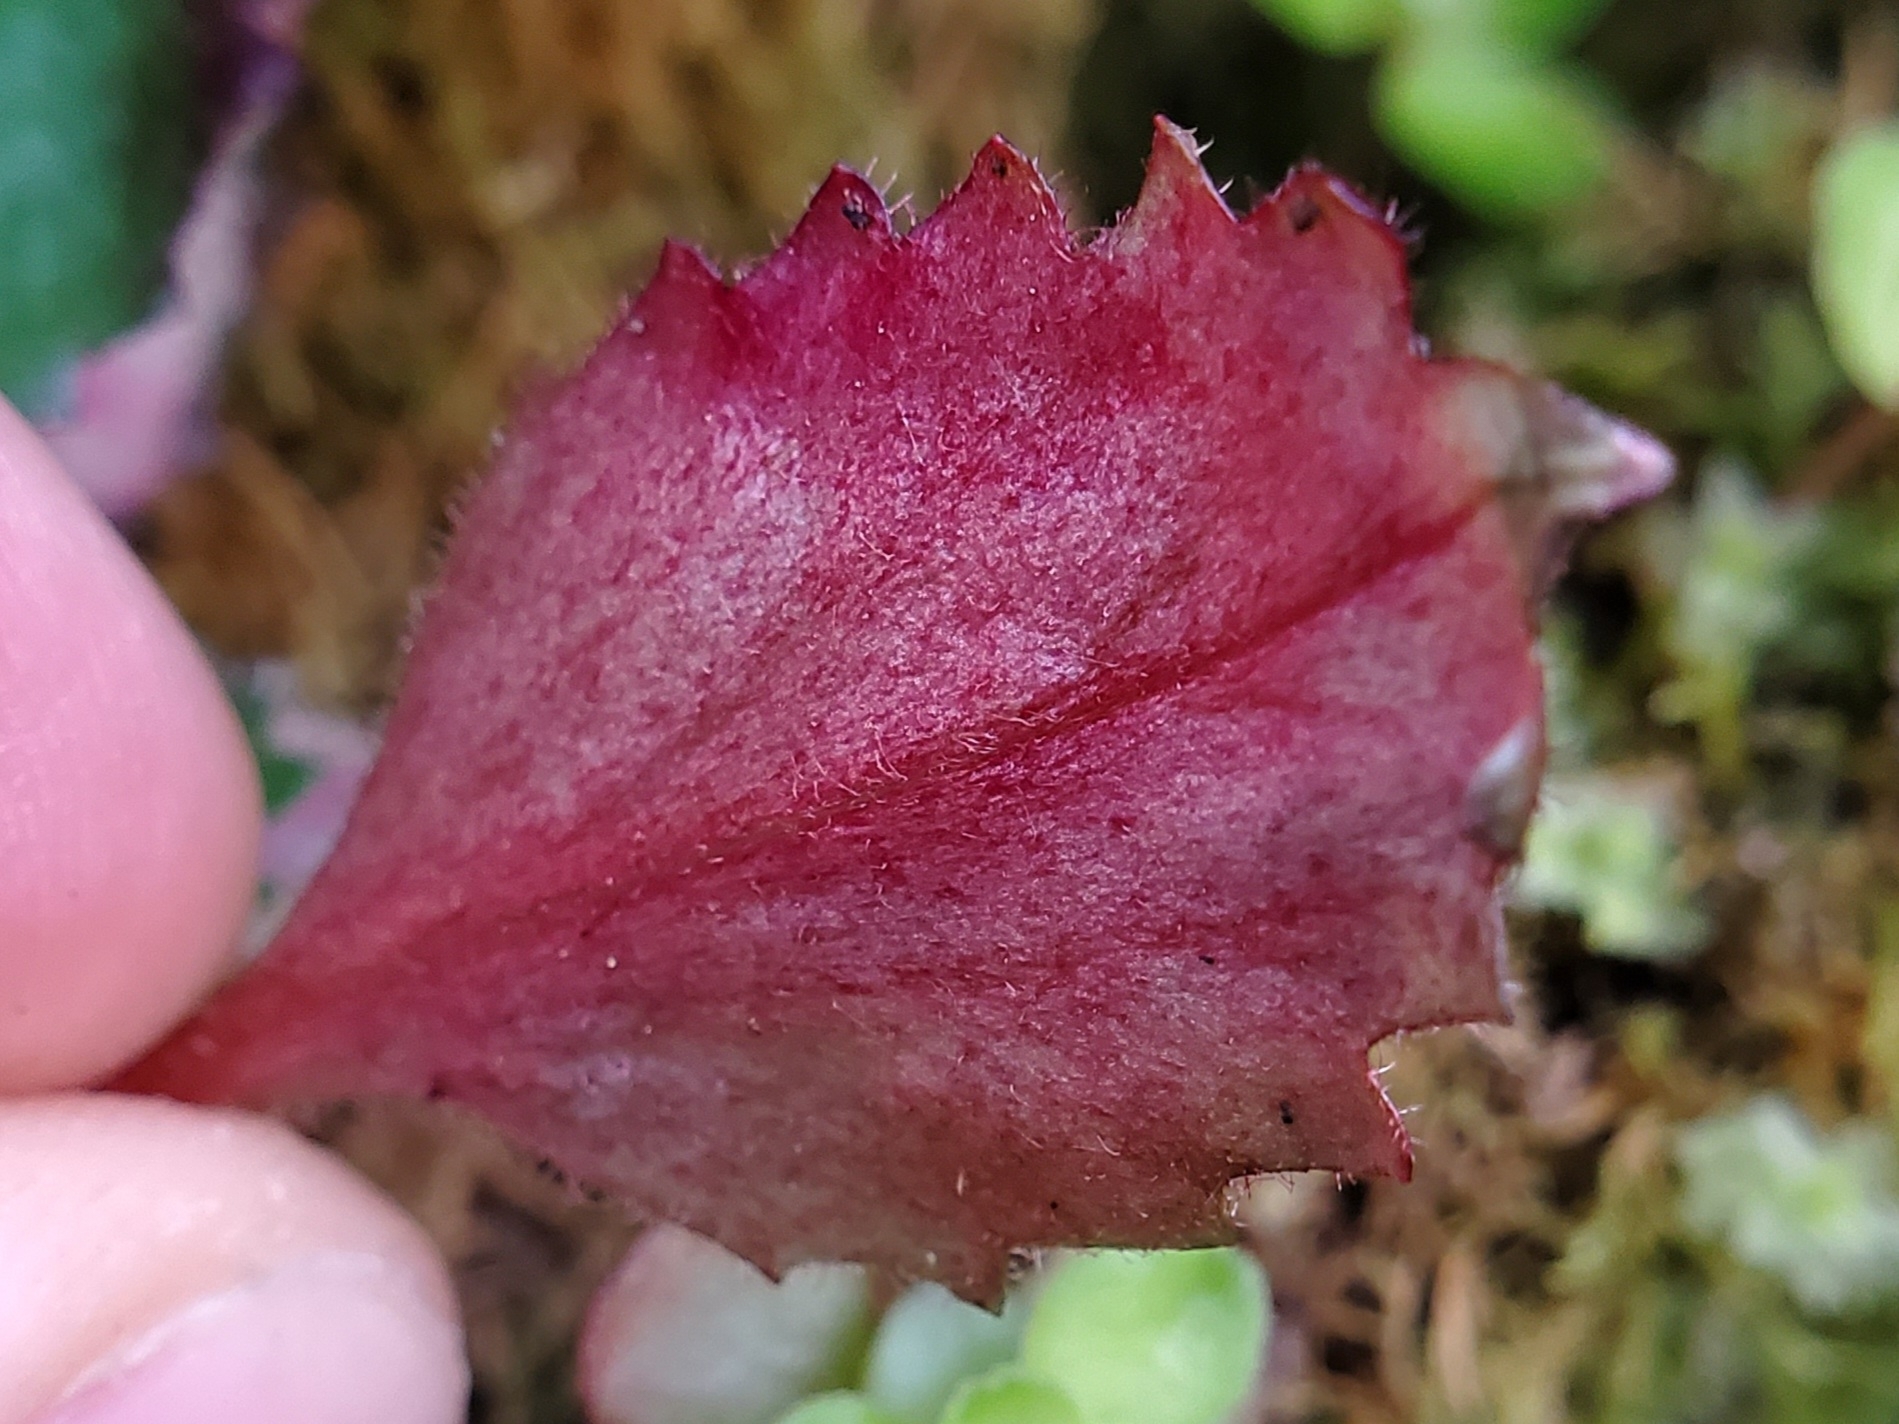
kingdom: Animalia
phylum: Arthropoda
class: Insecta
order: Diptera
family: Agromyzidae
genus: Phytomyza
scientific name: Phytomyza deirdreae
